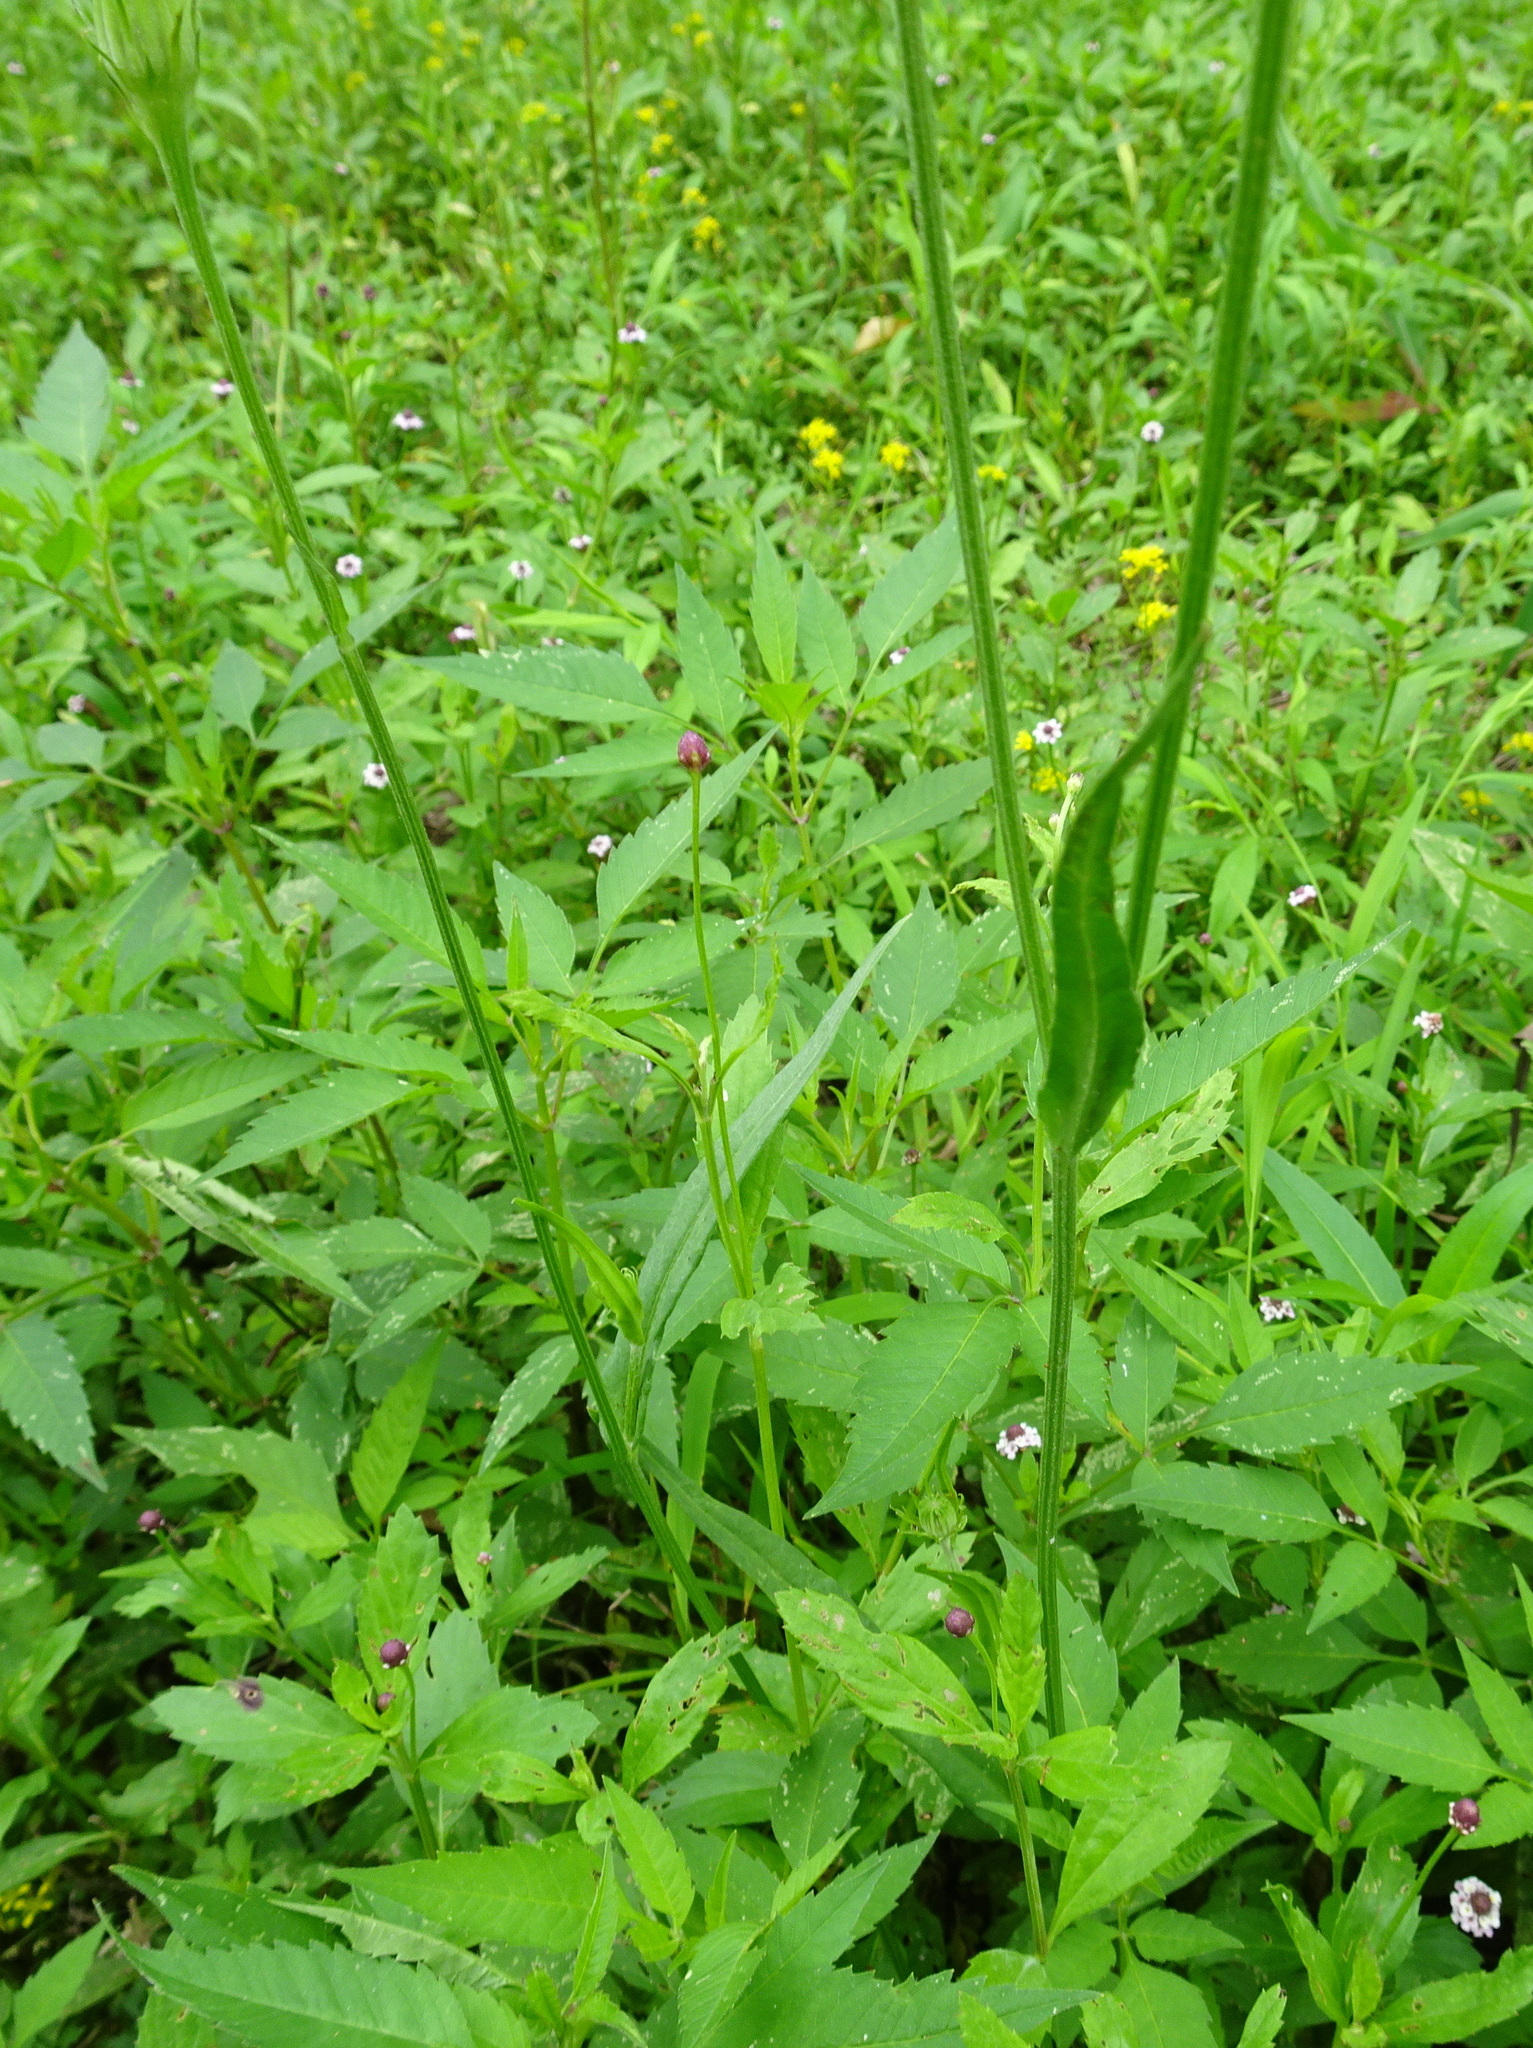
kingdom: Plantae
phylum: Tracheophyta
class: Magnoliopsida
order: Asterales
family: Asteraceae
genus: Pyrrhopappus
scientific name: Pyrrhopappus carolinianus
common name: Carolina desert-chicory
